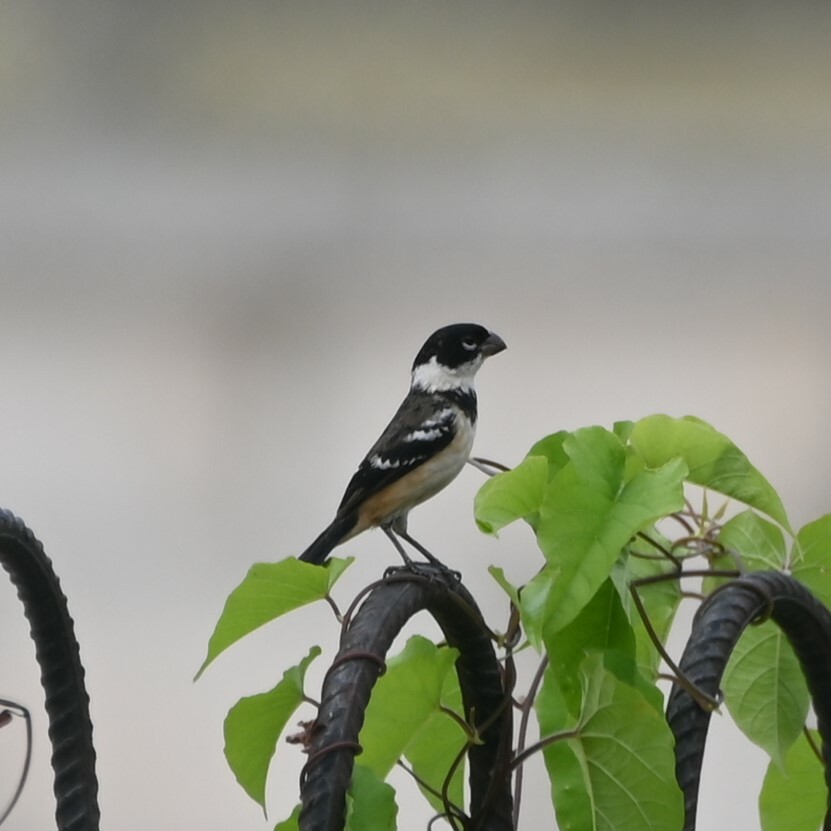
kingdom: Animalia
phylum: Chordata
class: Aves
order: Passeriformes
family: Thraupidae
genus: Sporophila
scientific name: Sporophila morelleti
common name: Morelet's seedeater
